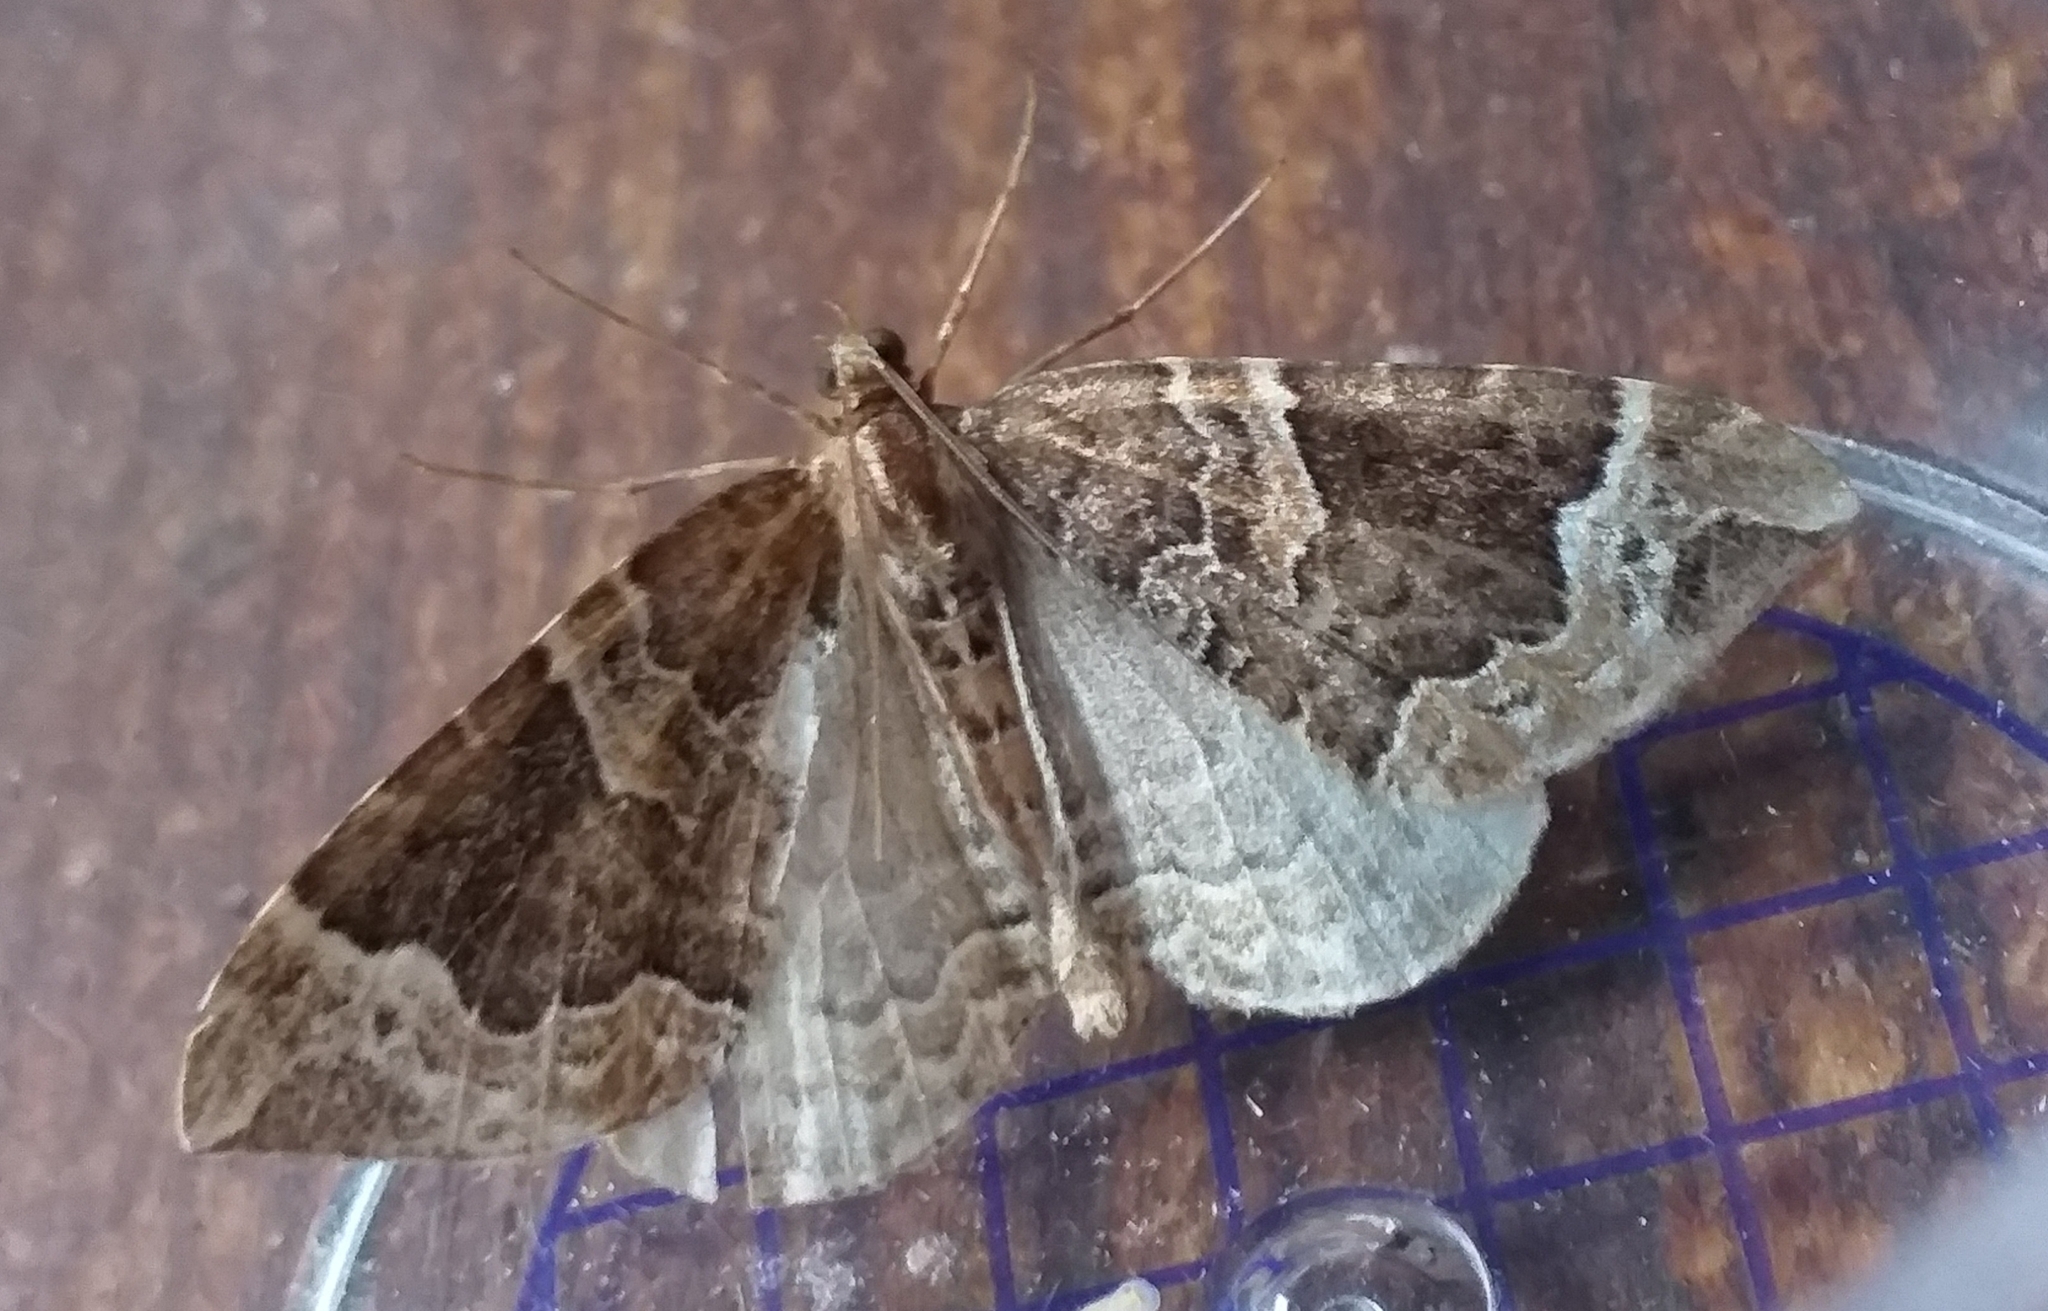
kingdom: Animalia
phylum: Arthropoda
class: Insecta
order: Lepidoptera
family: Geometridae
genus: Eulithis
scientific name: Eulithis prunata
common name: Phoenix
